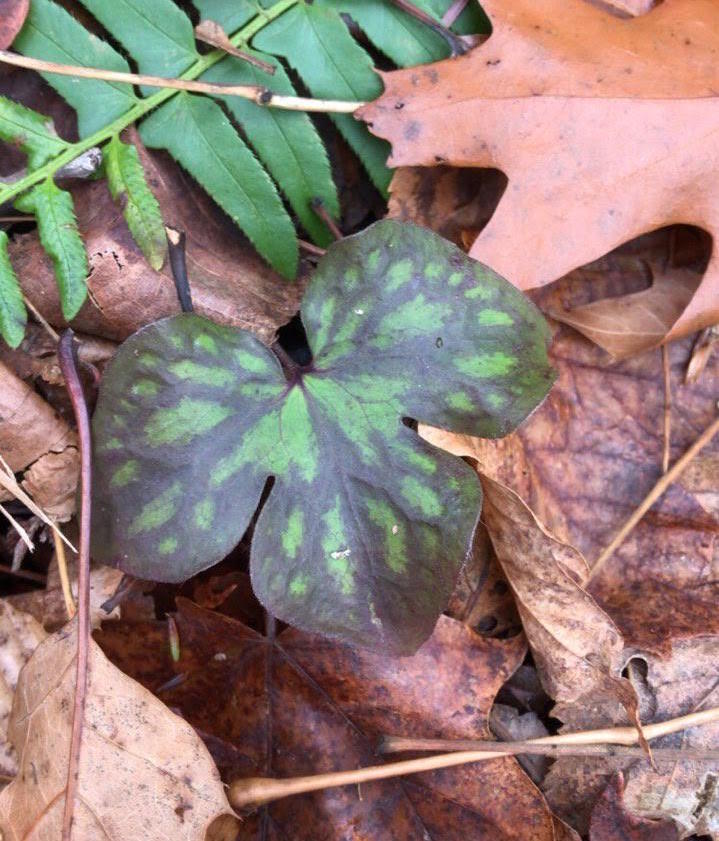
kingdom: Plantae
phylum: Tracheophyta
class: Magnoliopsida
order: Ranunculales
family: Ranunculaceae
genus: Hepatica
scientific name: Hepatica acutiloba
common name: Sharp-lobed hepatica
